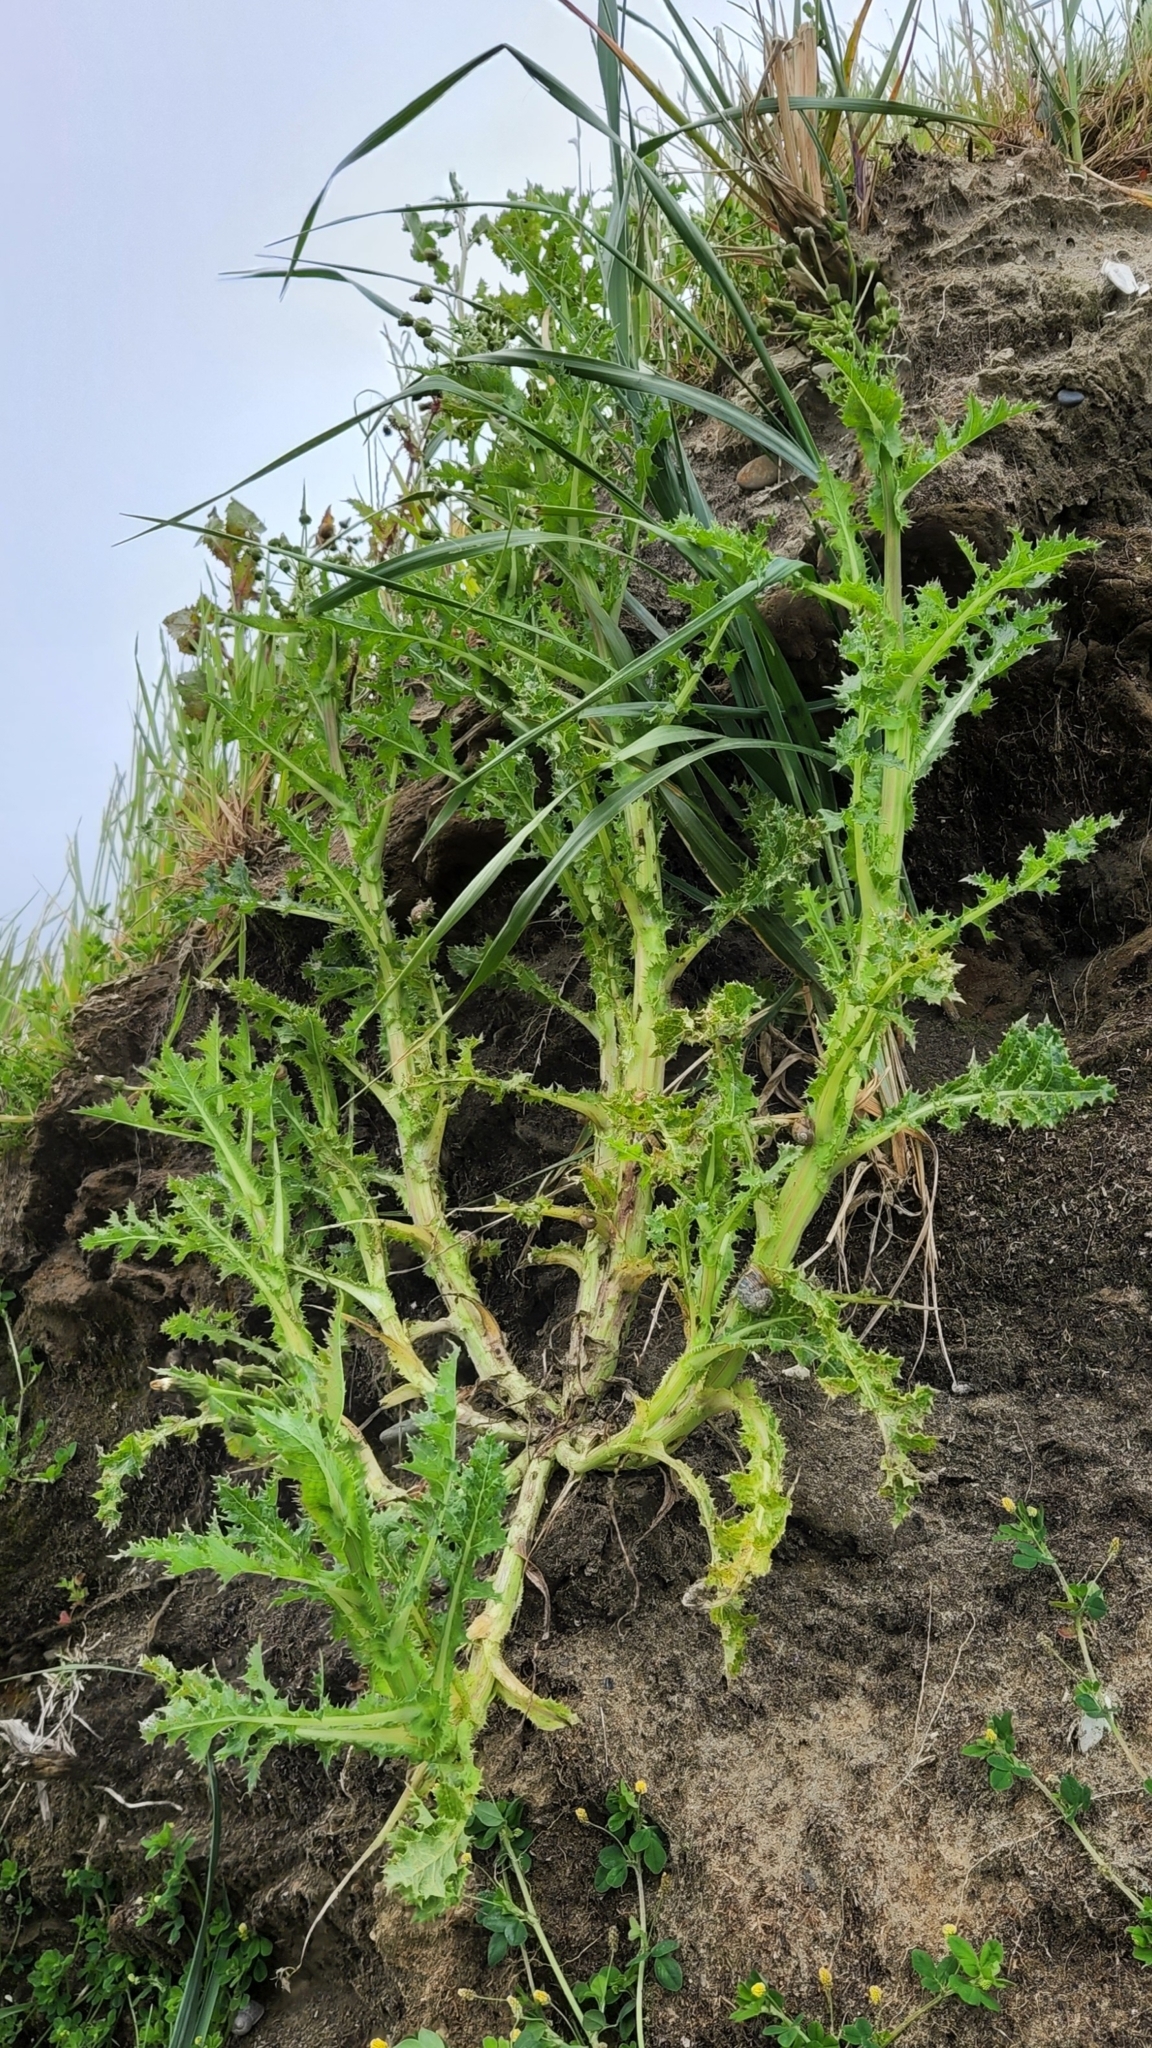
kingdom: Plantae
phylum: Tracheophyta
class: Magnoliopsida
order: Asterales
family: Asteraceae
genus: Sonchus
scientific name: Sonchus asper
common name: Prickly sow-thistle
